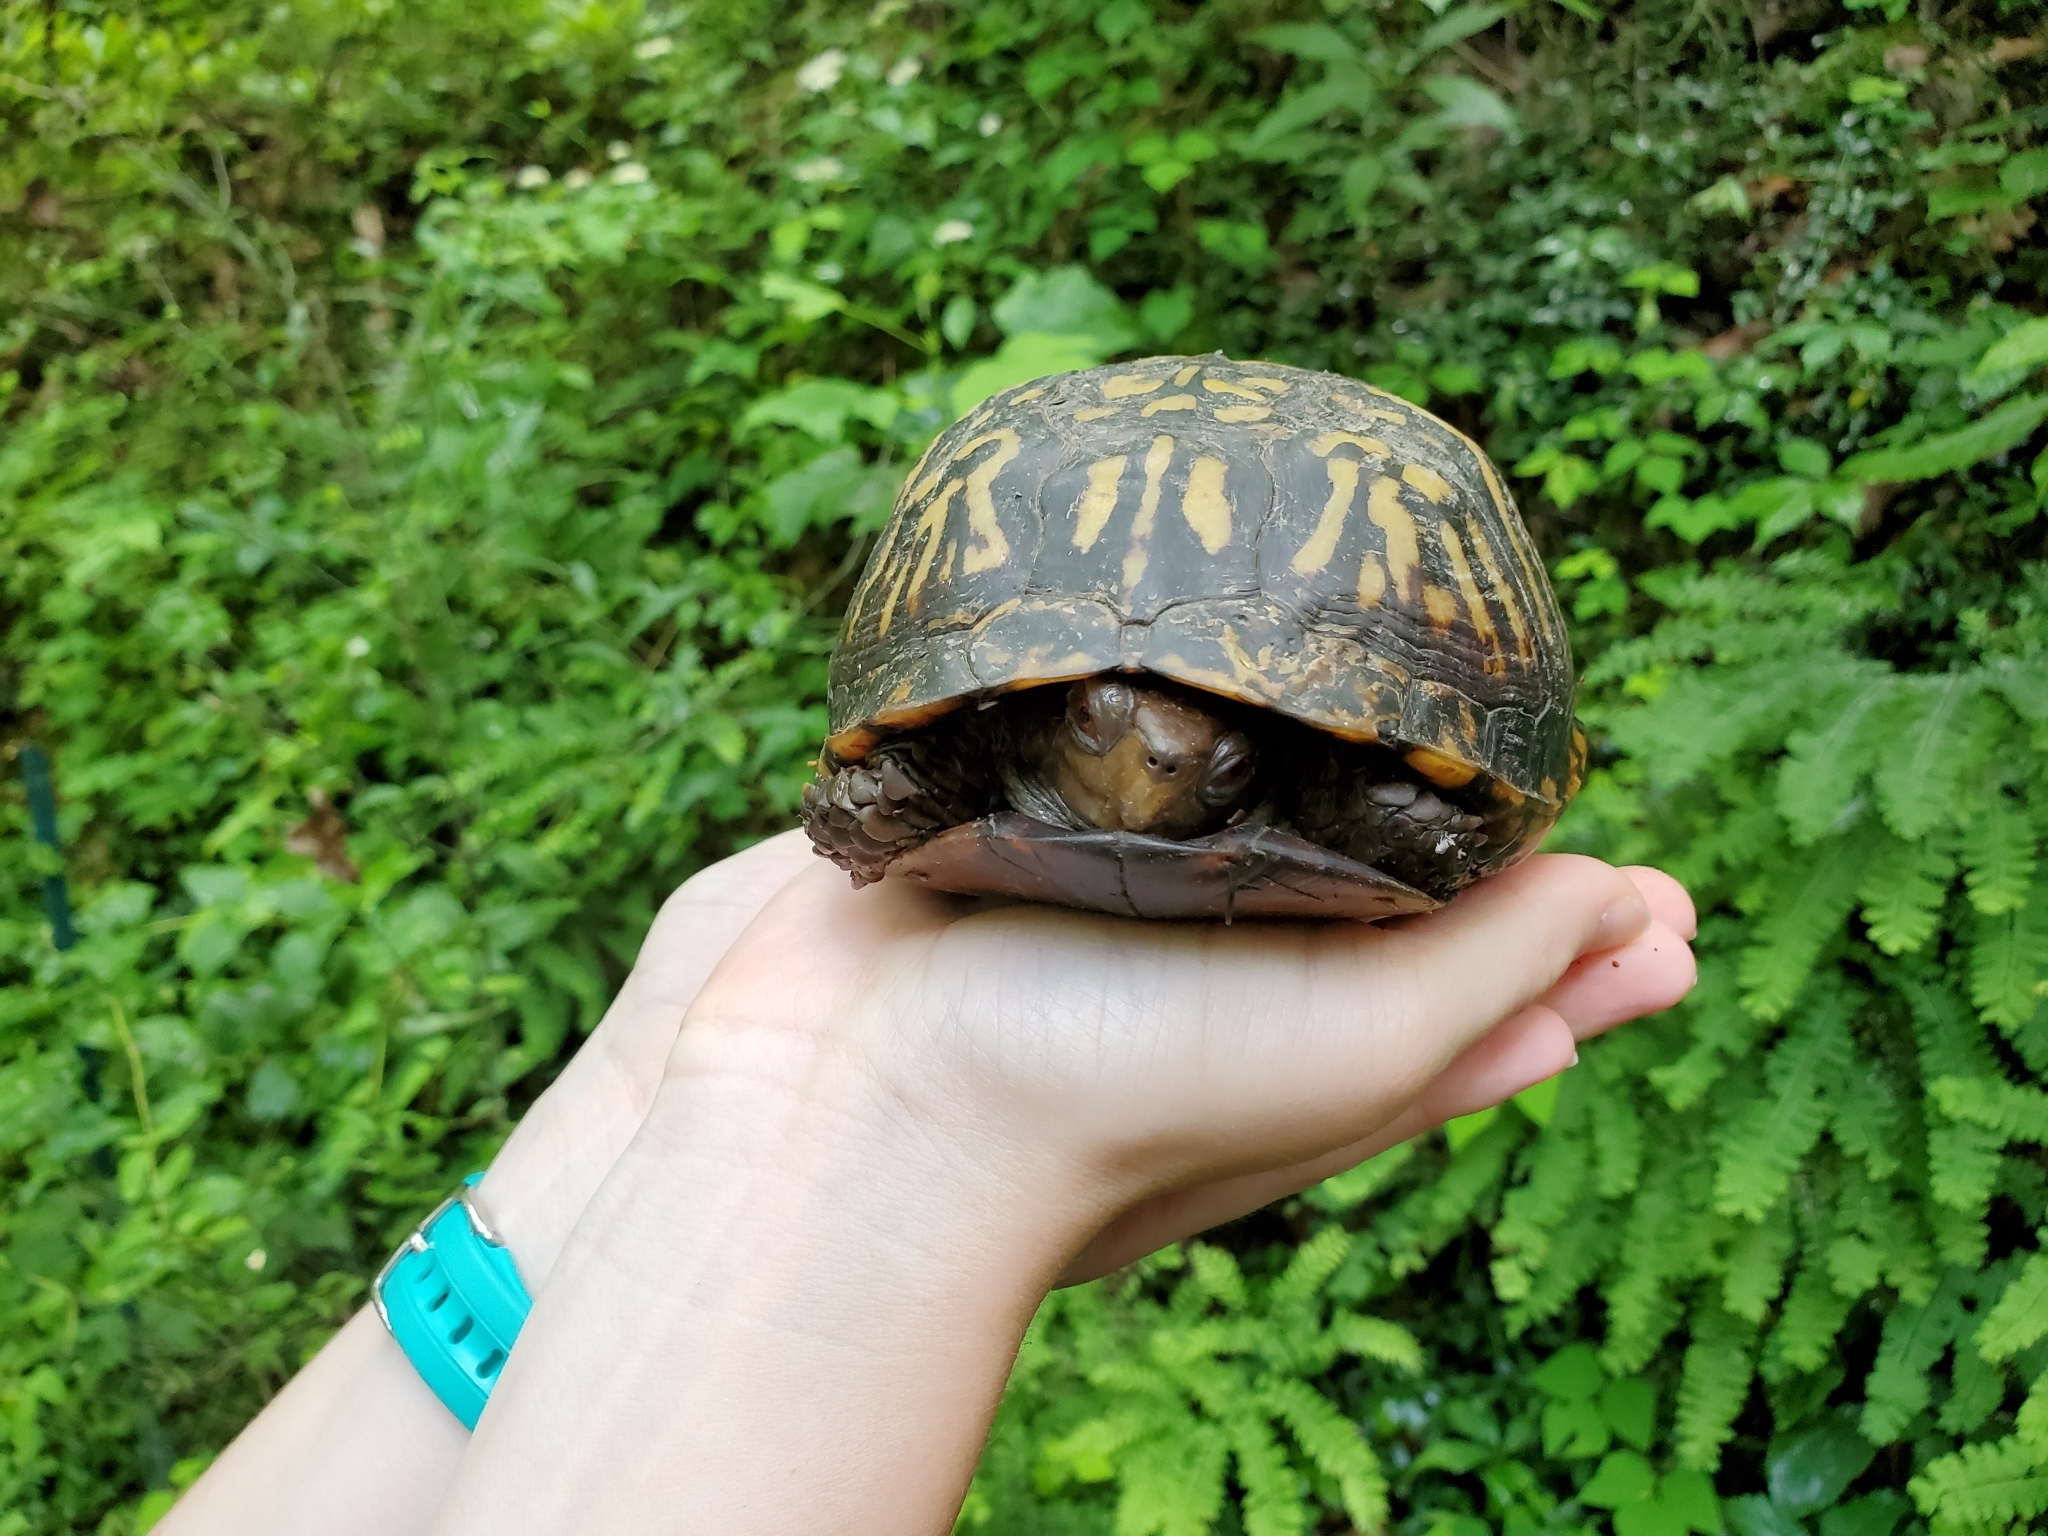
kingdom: Animalia
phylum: Chordata
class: Testudines
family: Emydidae
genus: Terrapene
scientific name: Terrapene carolina
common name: Common box turtle
